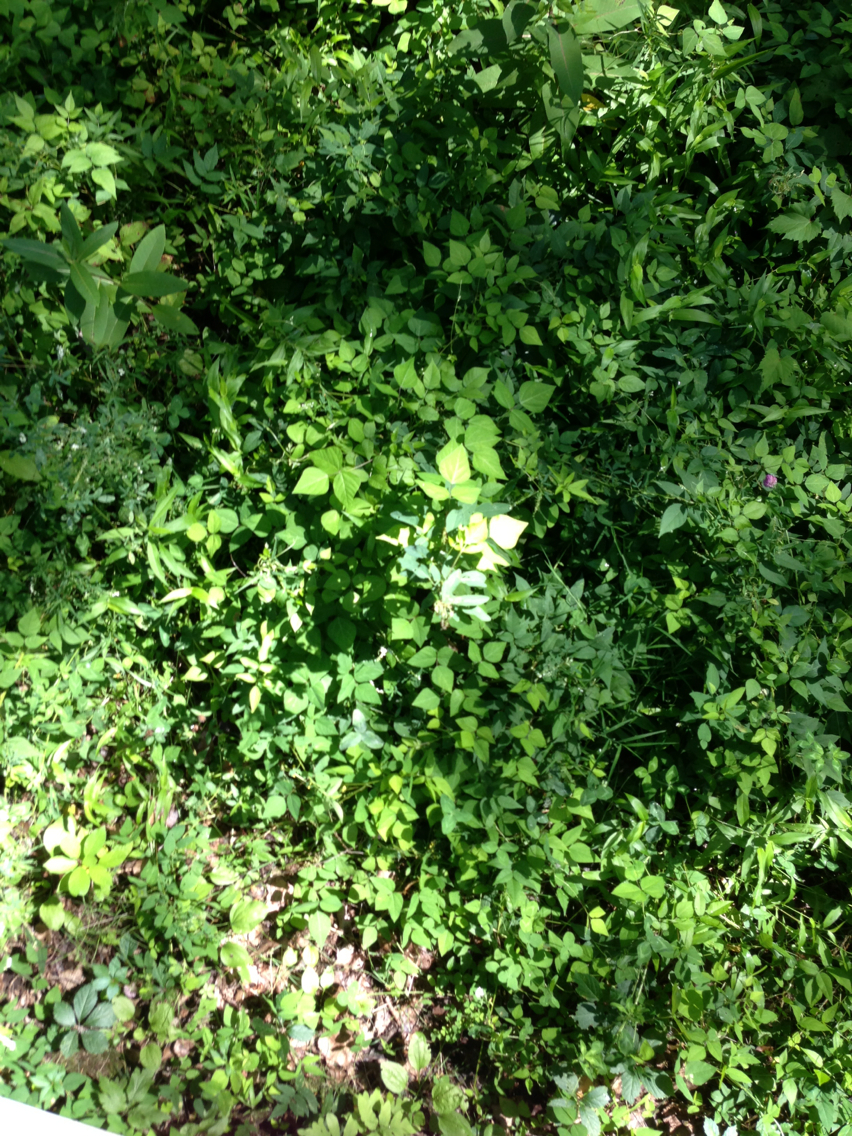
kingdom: Plantae
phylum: Tracheophyta
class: Magnoliopsida
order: Fabales
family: Fabaceae
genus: Amphicarpaea
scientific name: Amphicarpaea bracteata
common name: American hog peanut
